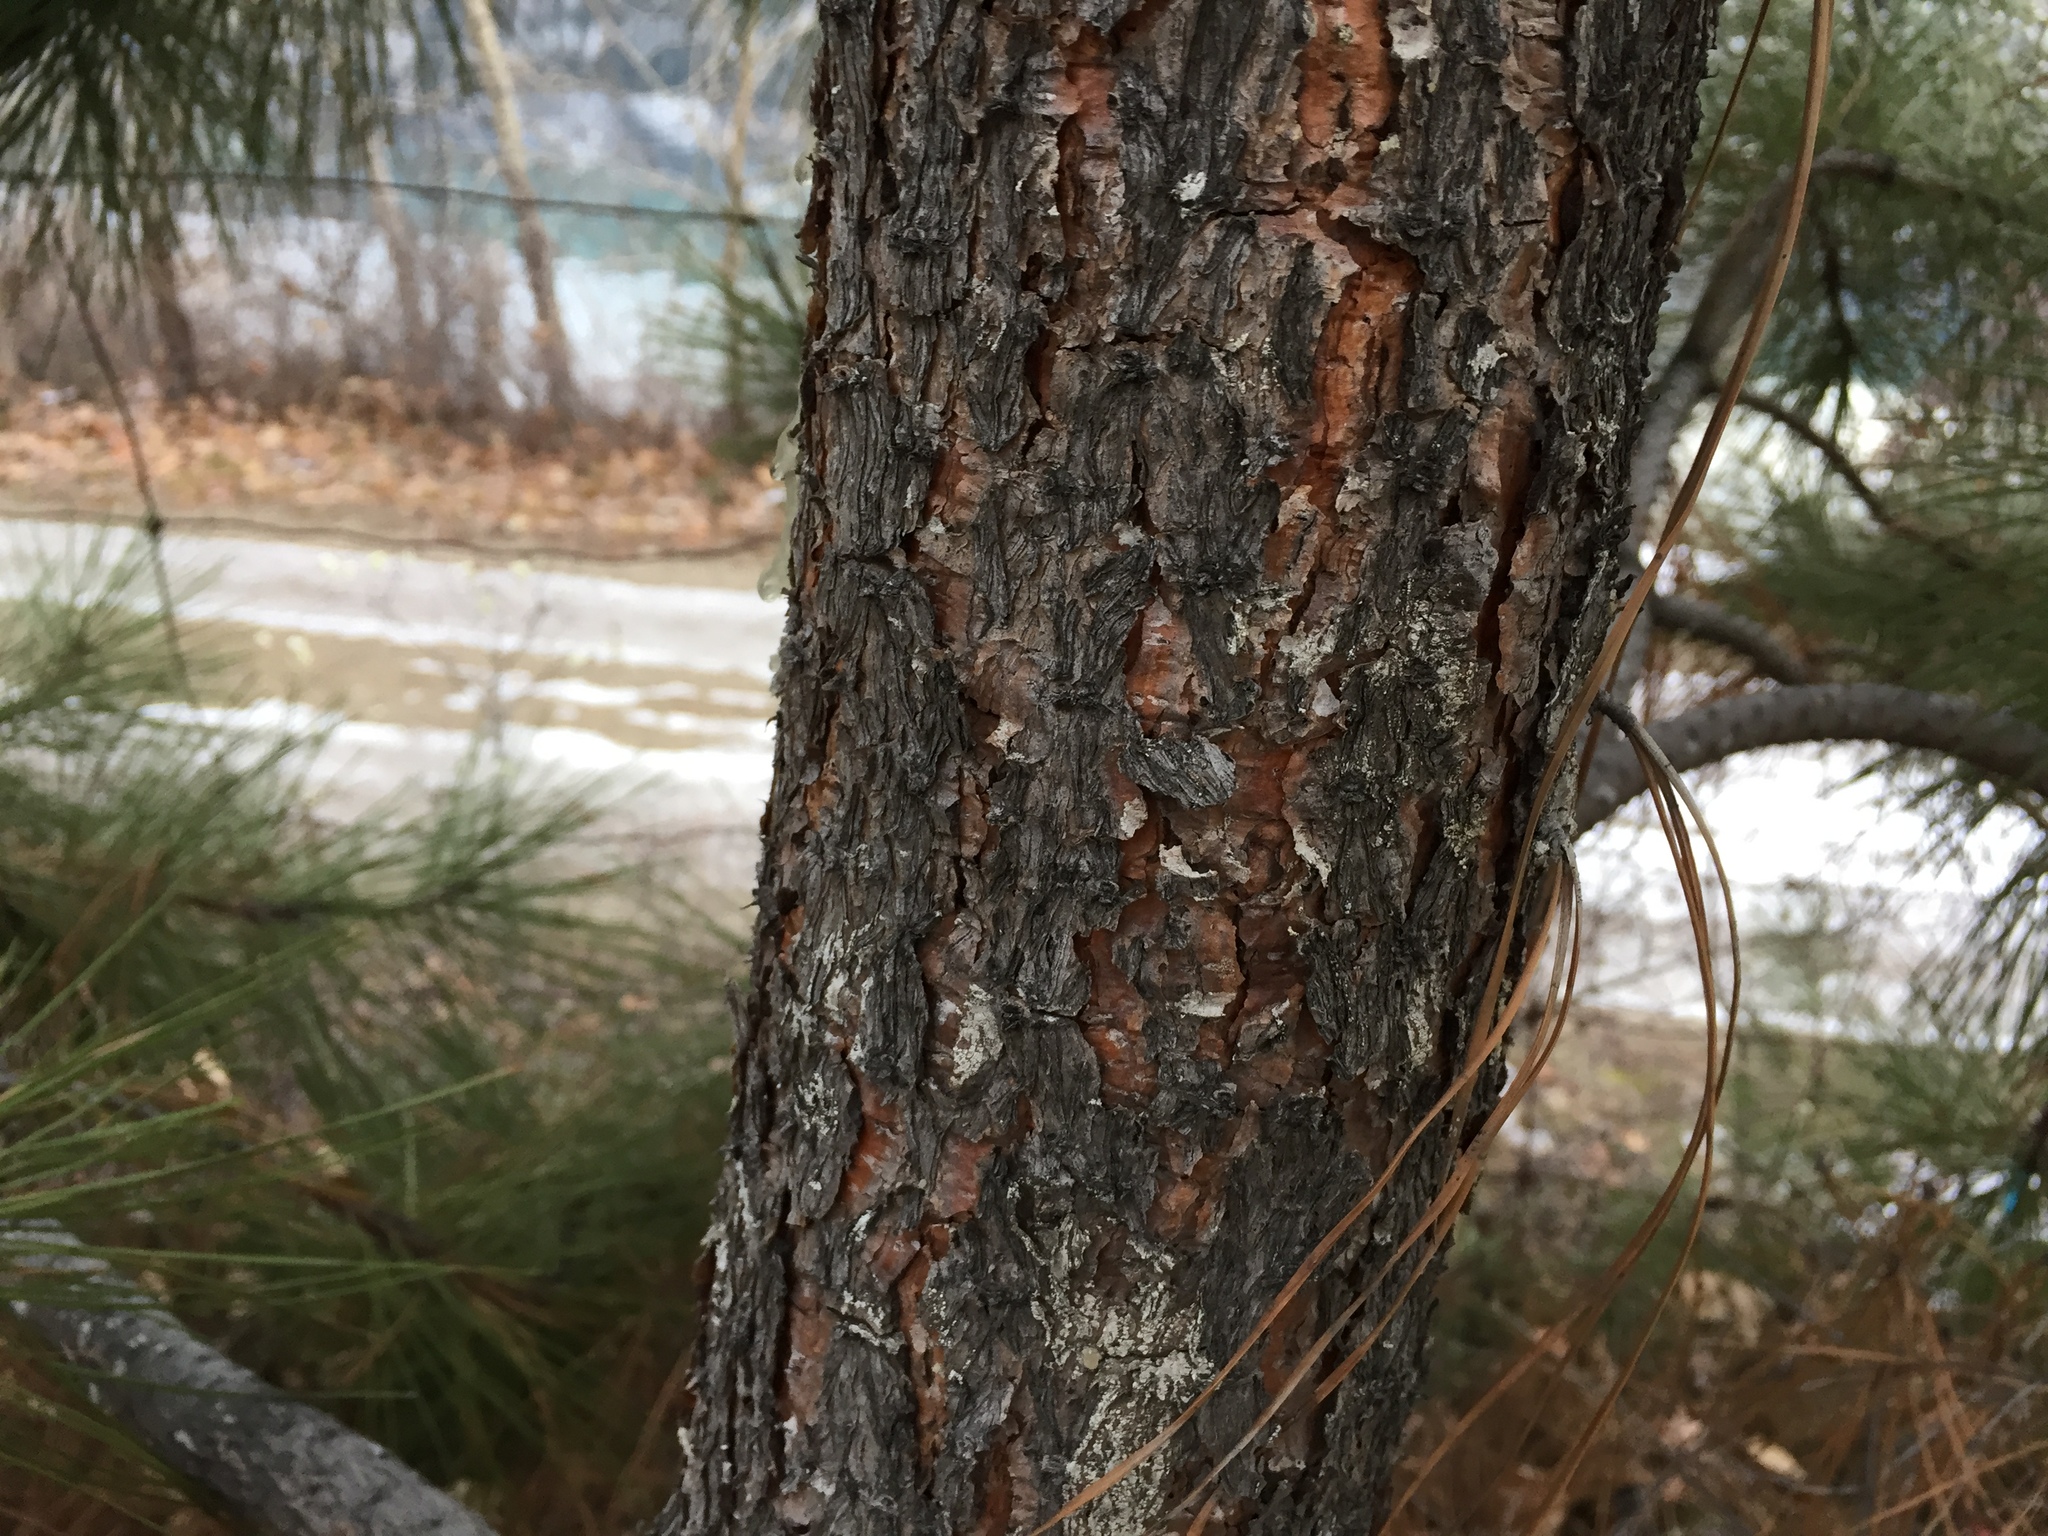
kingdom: Plantae
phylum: Tracheophyta
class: Pinopsida
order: Pinales
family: Pinaceae
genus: Pinus
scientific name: Pinus ponderosa
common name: Western yellow-pine
